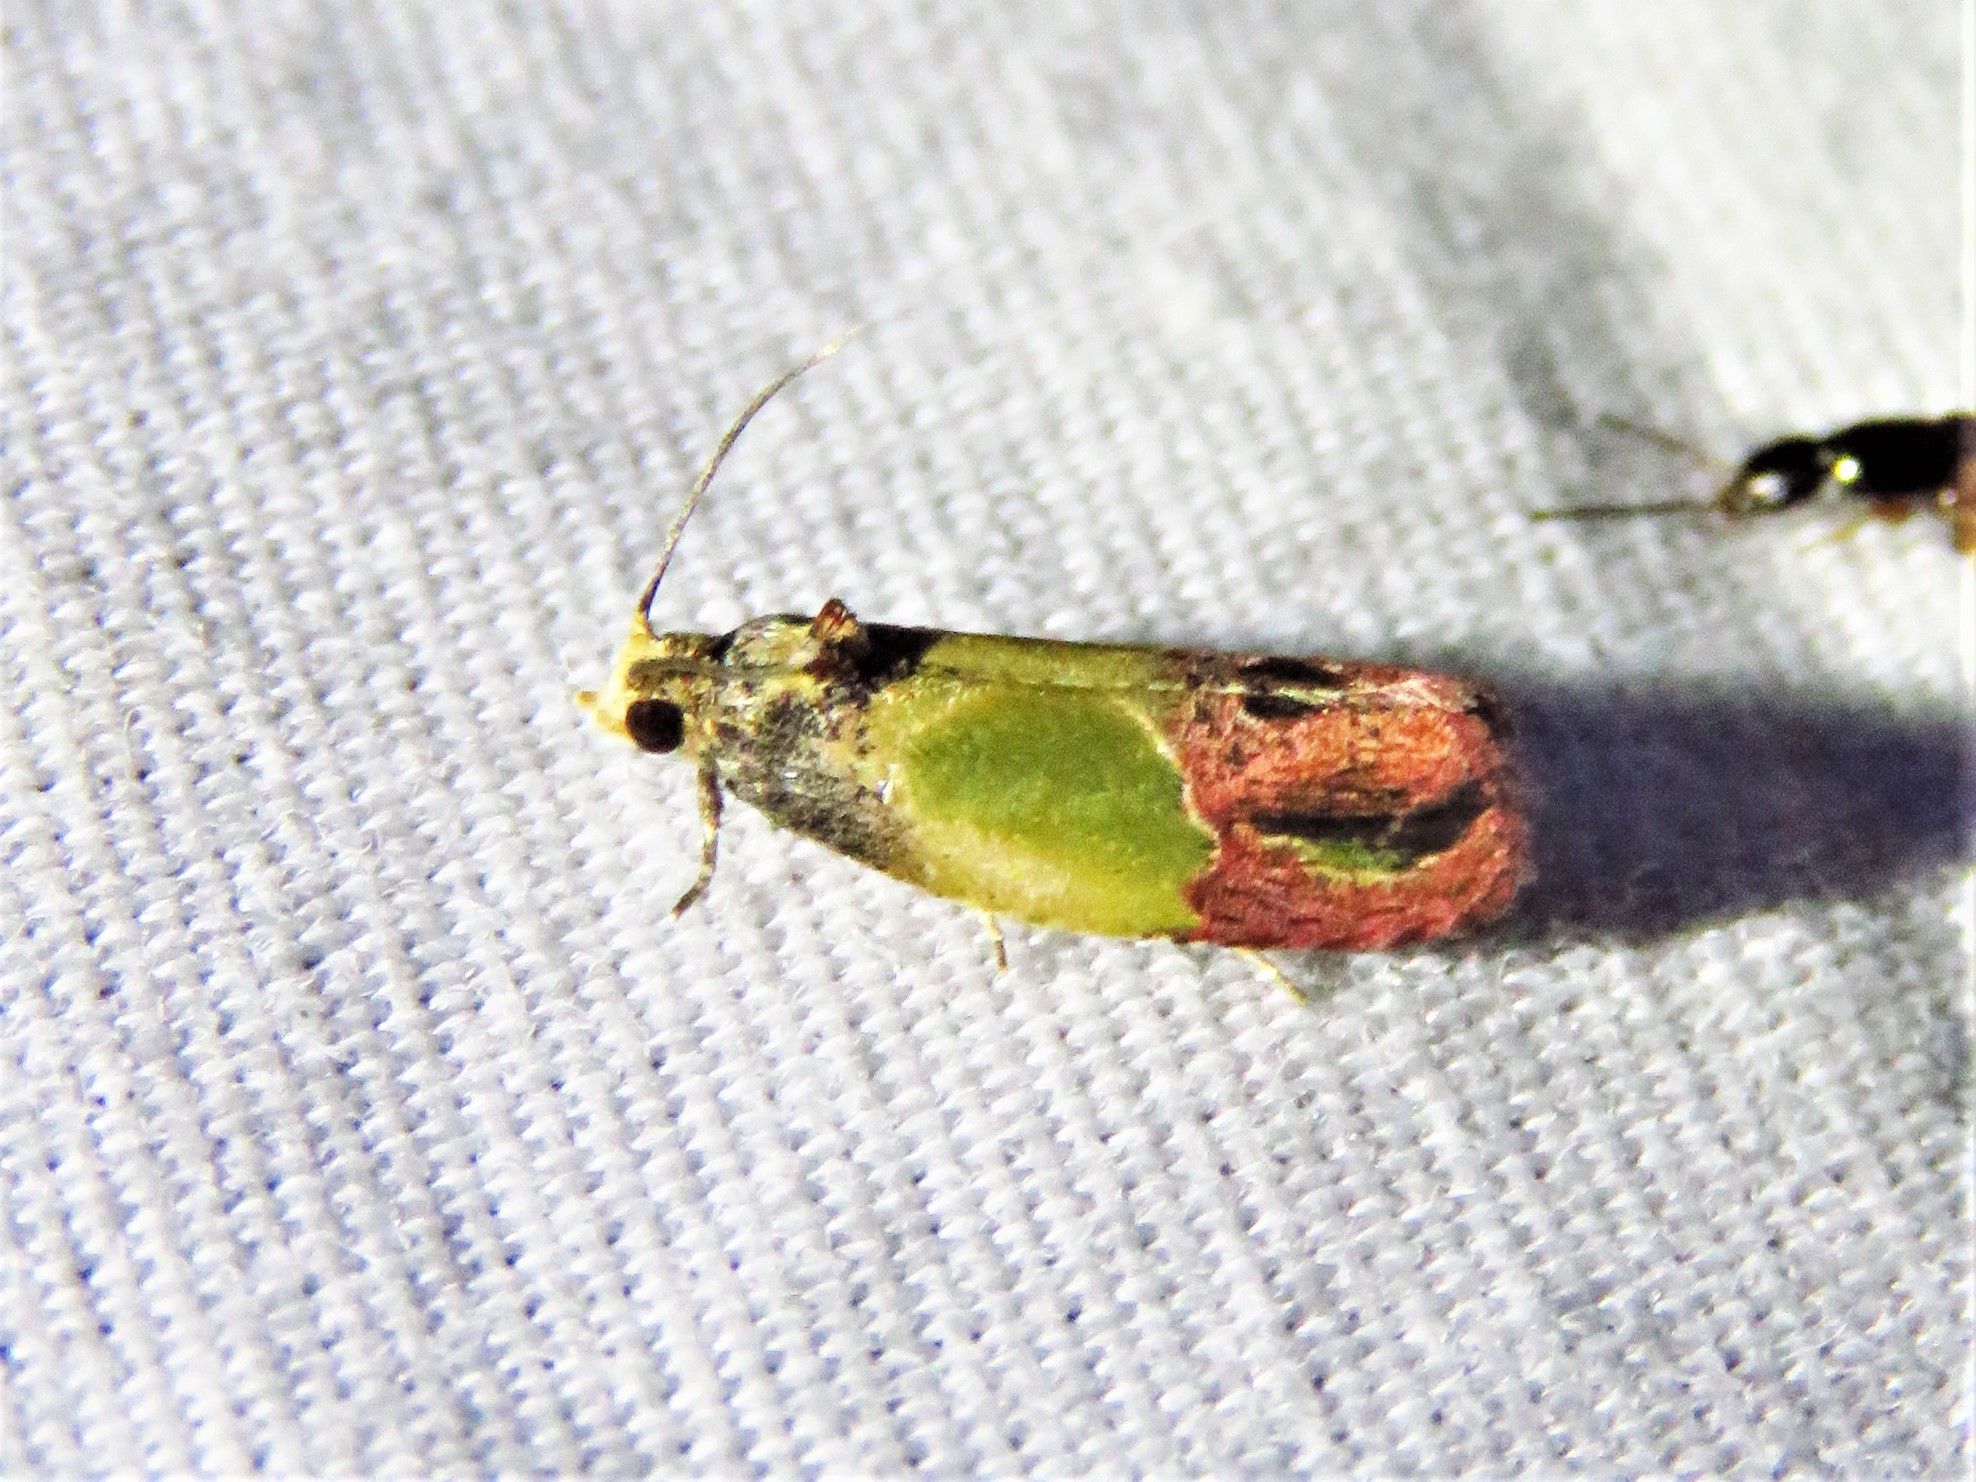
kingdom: Animalia
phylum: Arthropoda
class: Insecta
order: Lepidoptera
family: Tortricidae
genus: Eumarozia
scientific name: Eumarozia malachitana
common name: Sculptured moth
